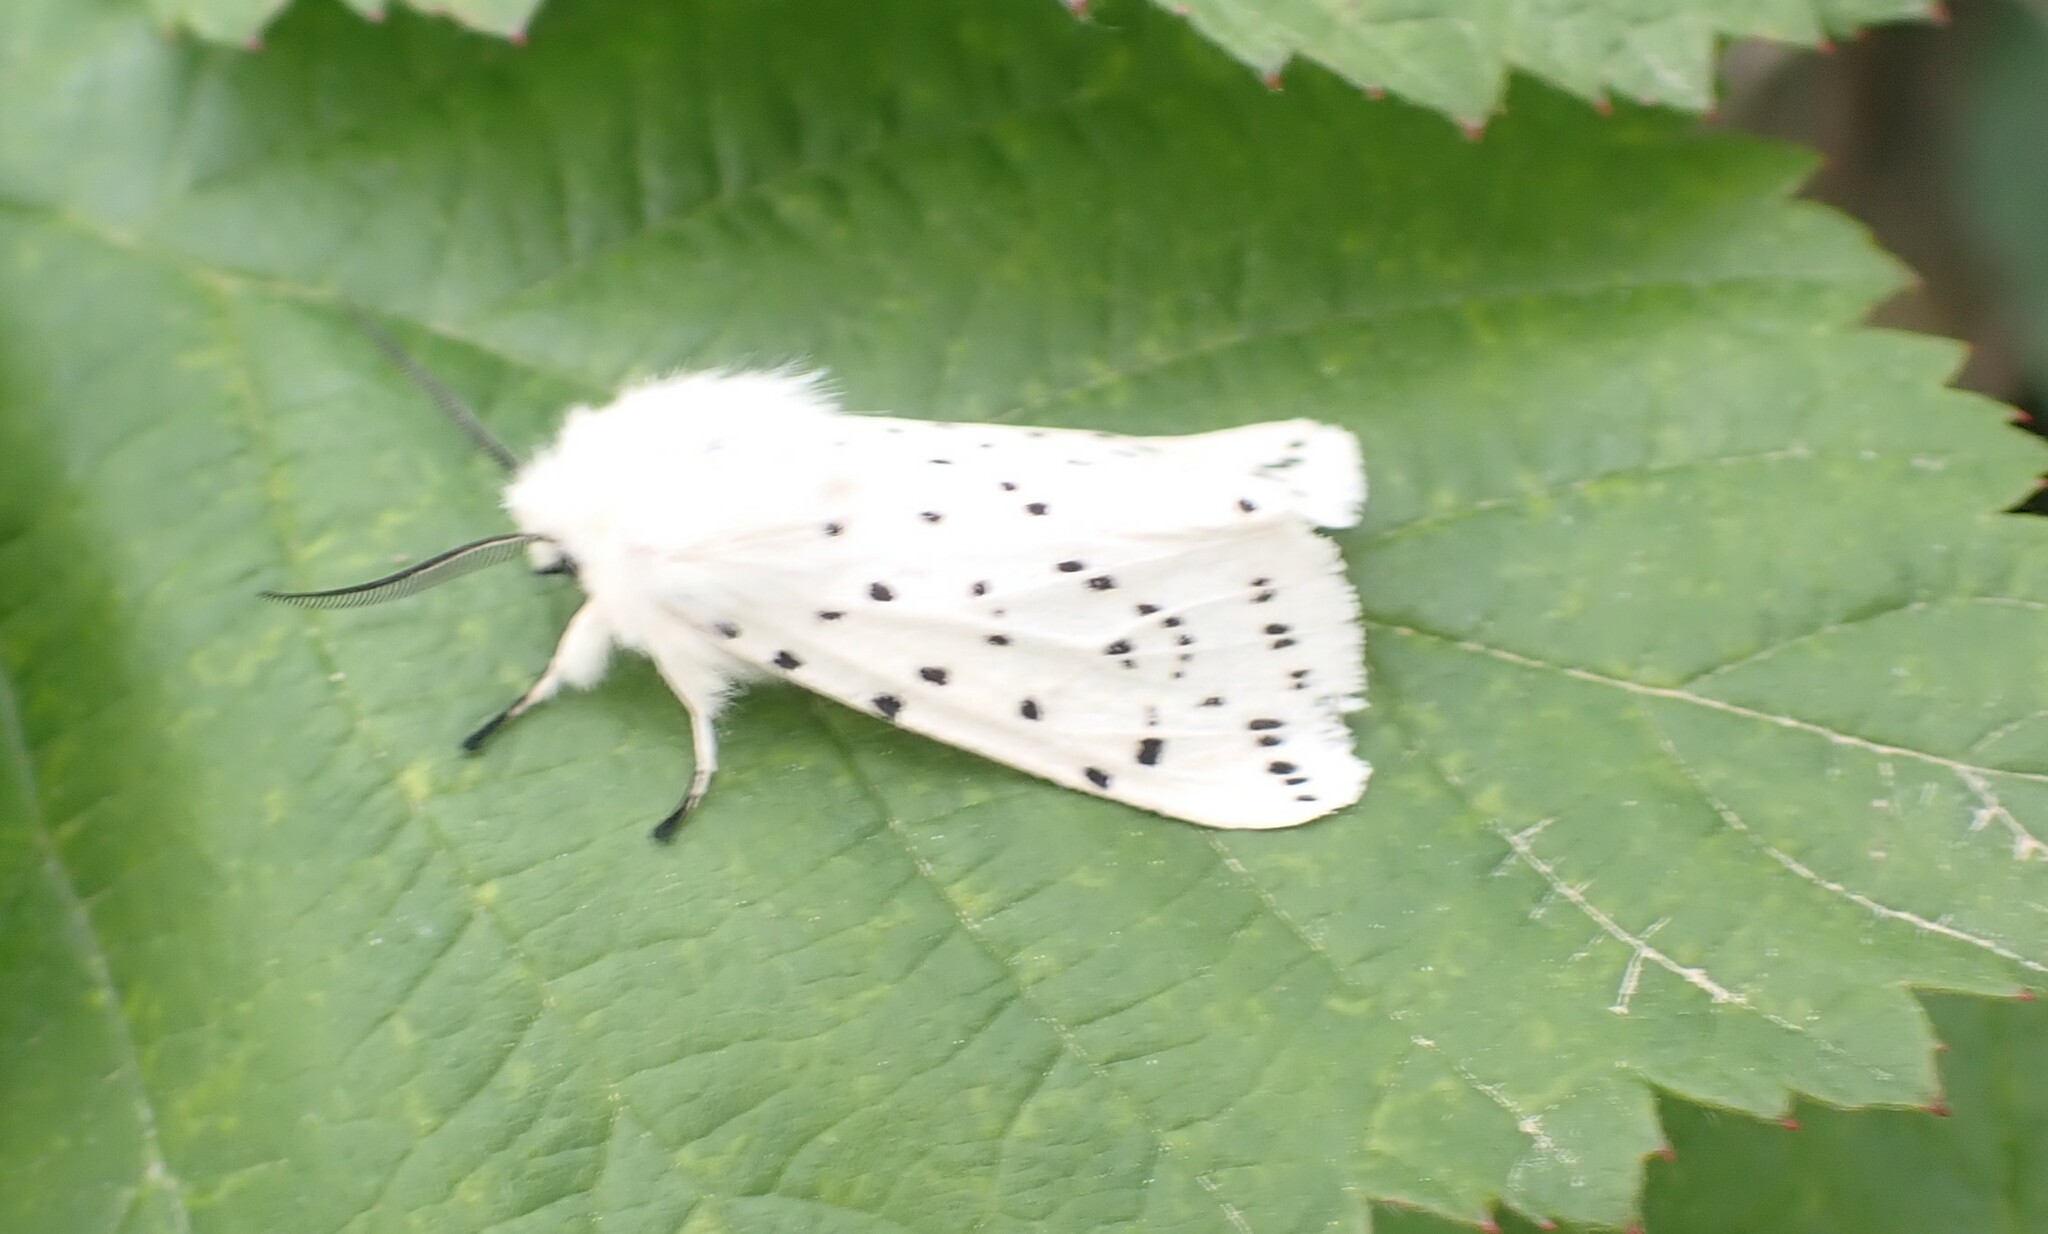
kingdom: Animalia
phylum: Arthropoda
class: Insecta
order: Lepidoptera
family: Erebidae
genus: Spilosoma
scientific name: Spilosoma lubricipeda
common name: White ermine
